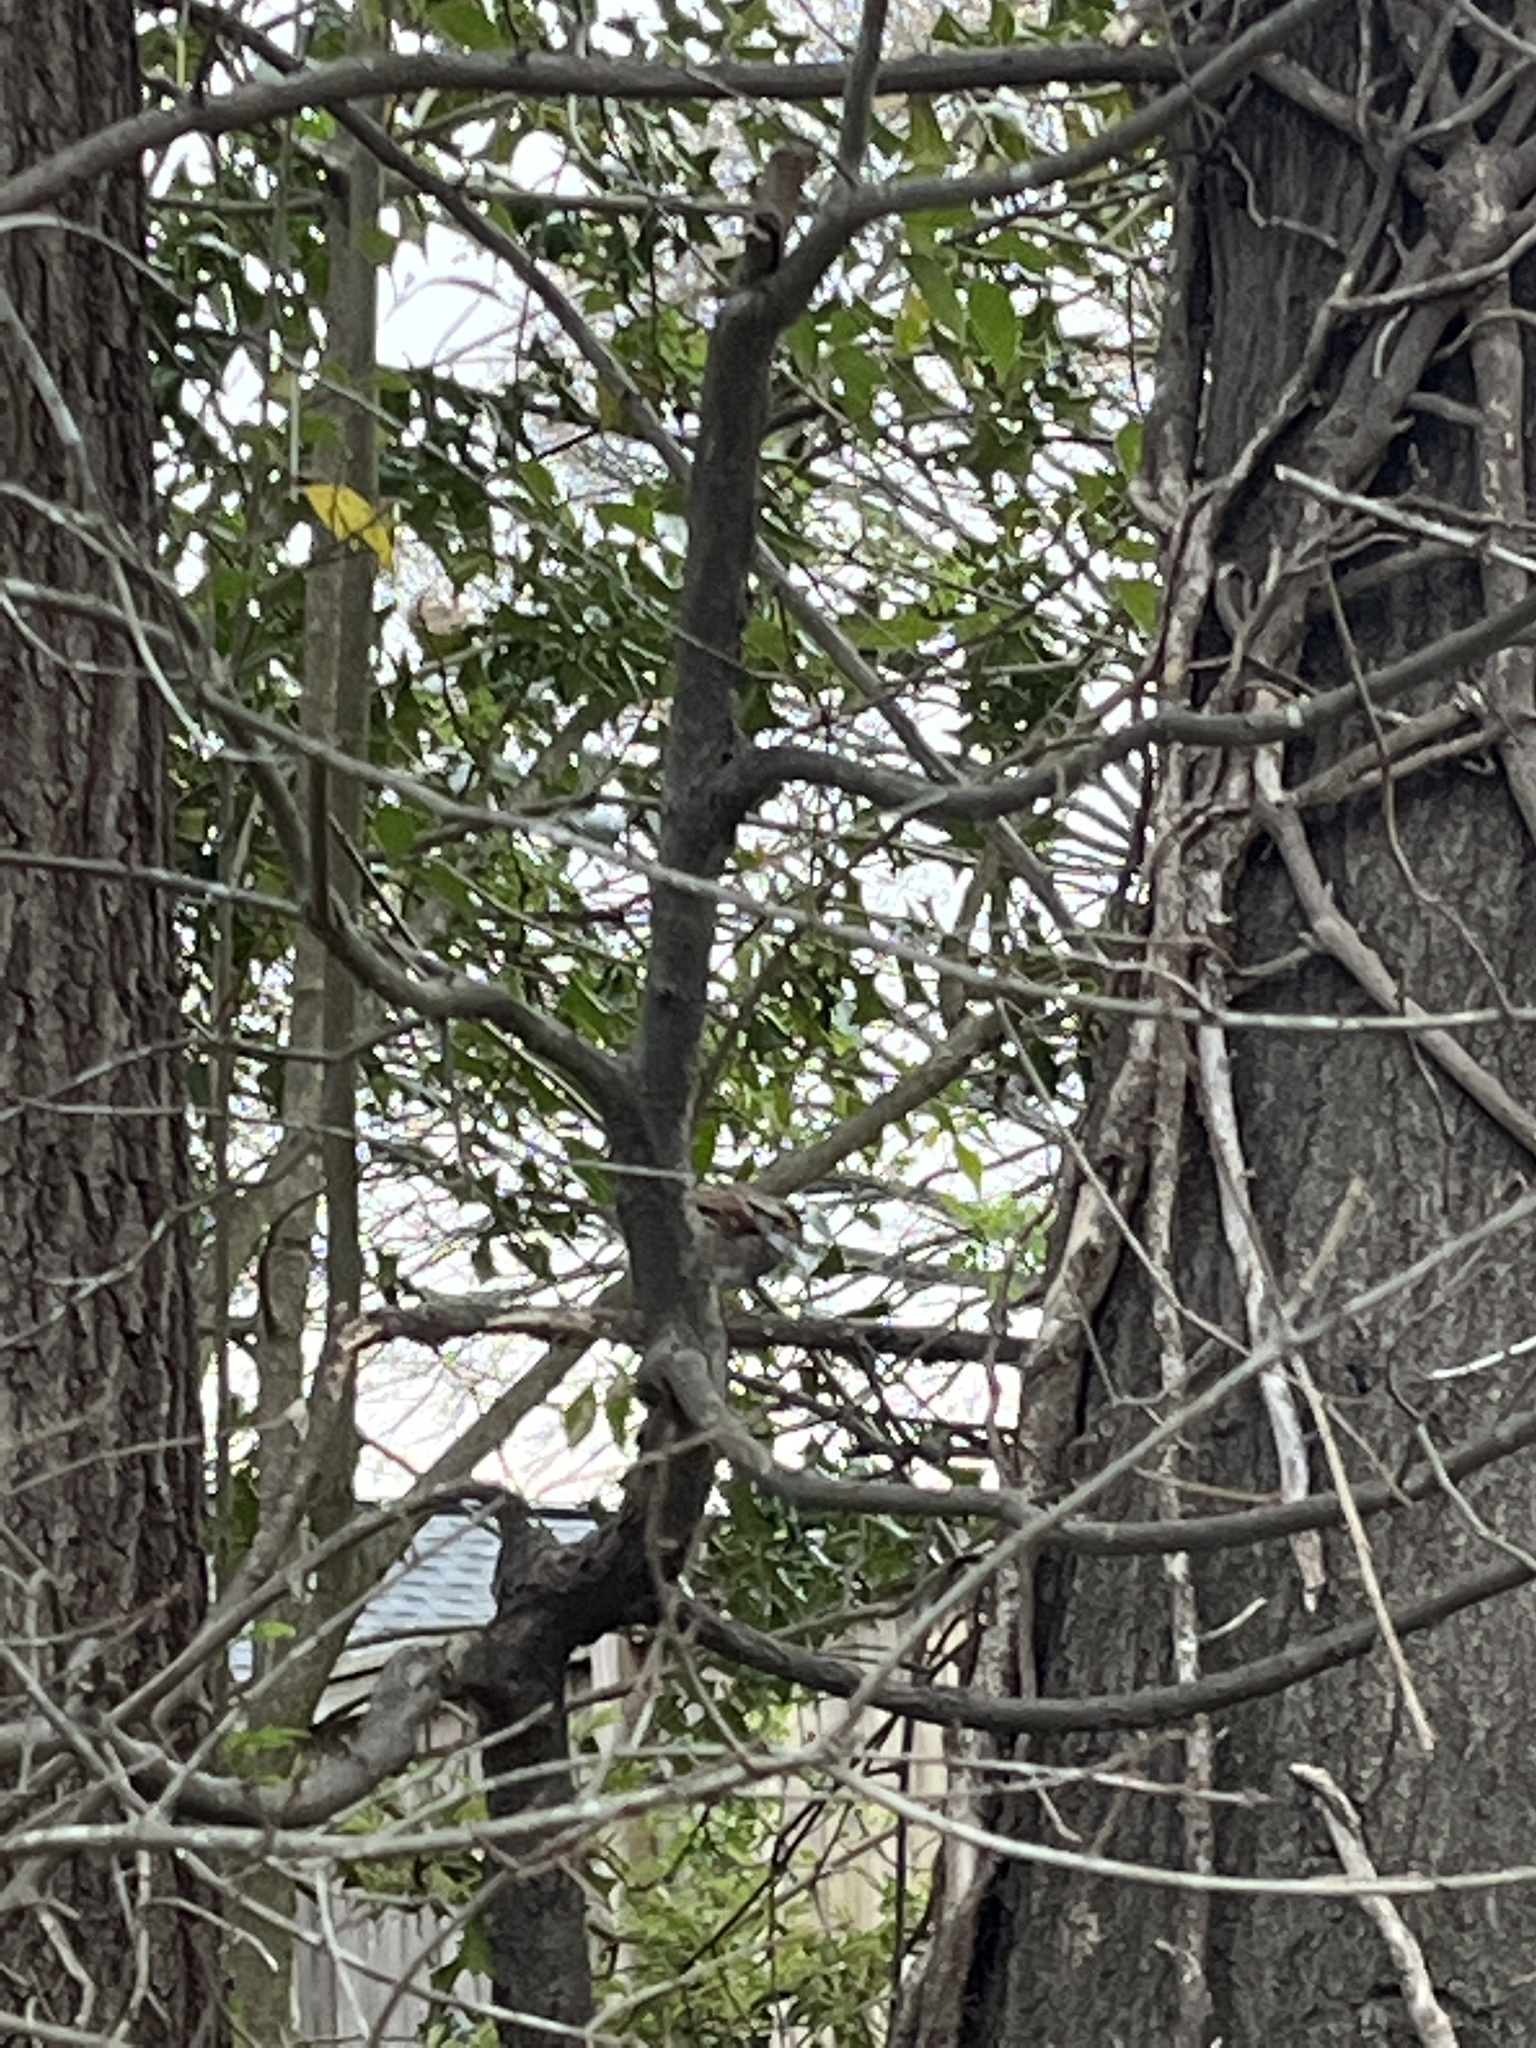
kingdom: Animalia
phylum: Chordata
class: Aves
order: Passeriformes
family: Passerellidae
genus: Zonotrichia
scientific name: Zonotrichia albicollis
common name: White-throated sparrow
